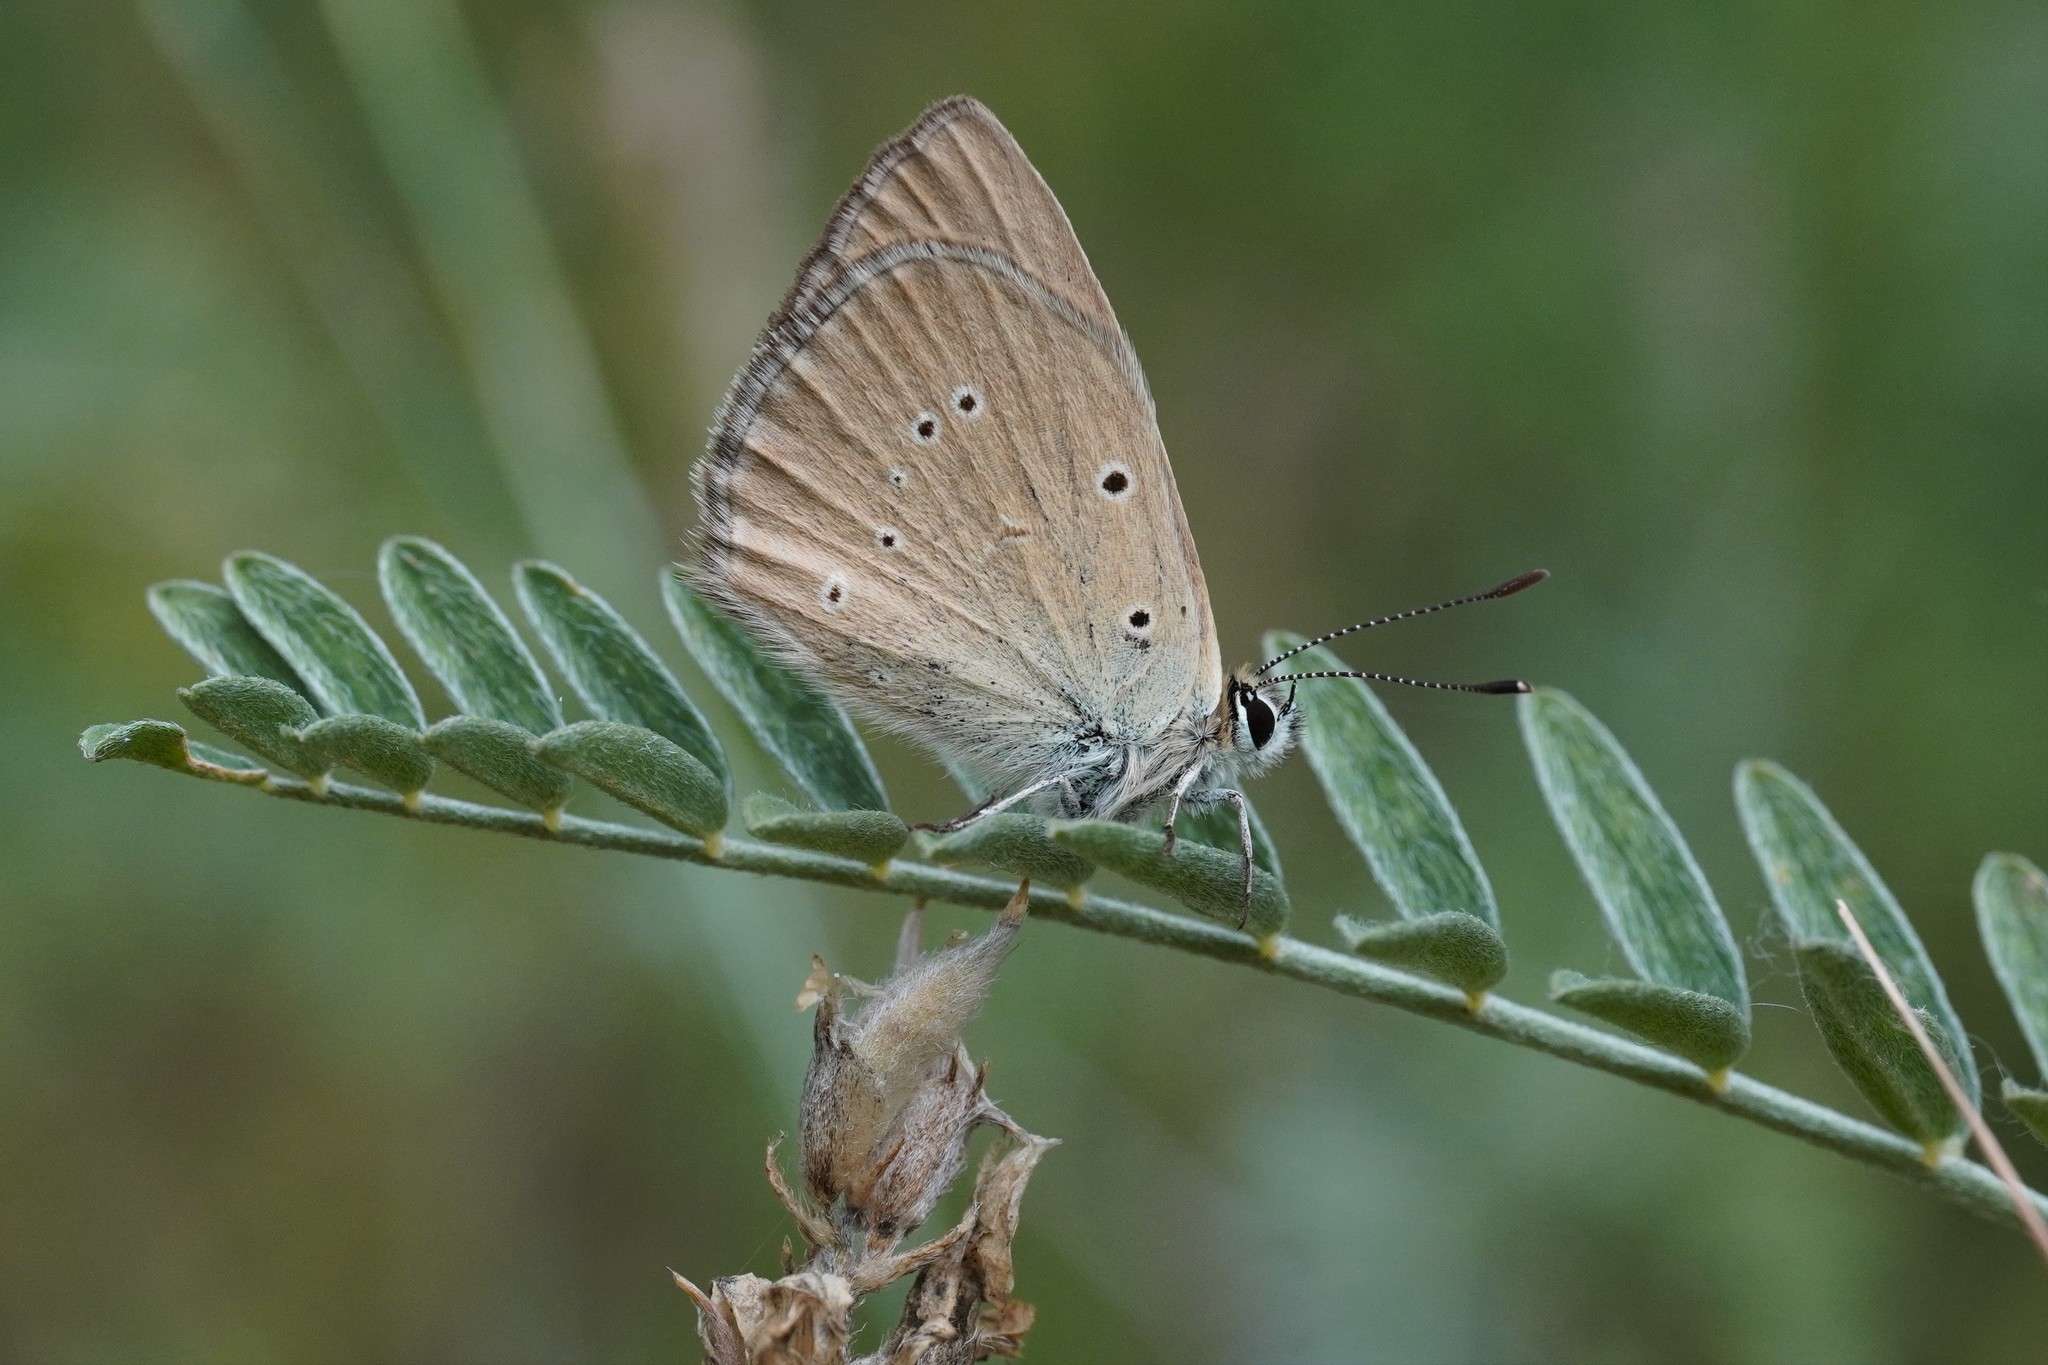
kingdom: Animalia
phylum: Arthropoda
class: Insecta
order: Lepidoptera
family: Lycaenidae
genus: Agrodiaetus
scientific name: Agrodiaetus humedasae
